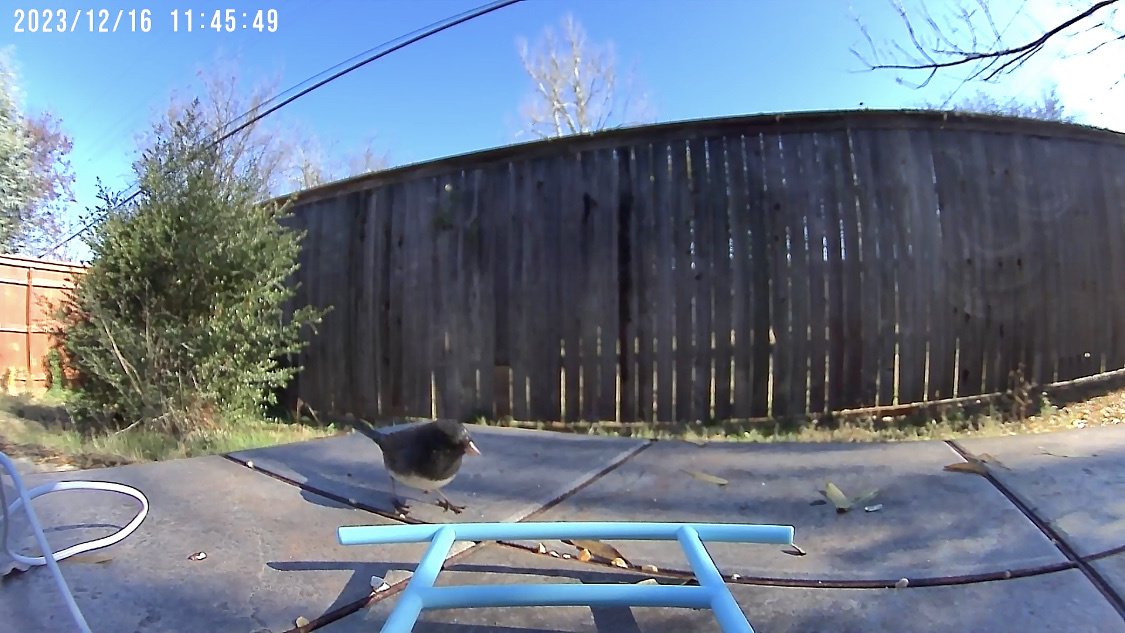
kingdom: Animalia
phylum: Chordata
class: Aves
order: Passeriformes
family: Passerellidae
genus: Junco
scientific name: Junco hyemalis
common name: Dark-eyed junco
